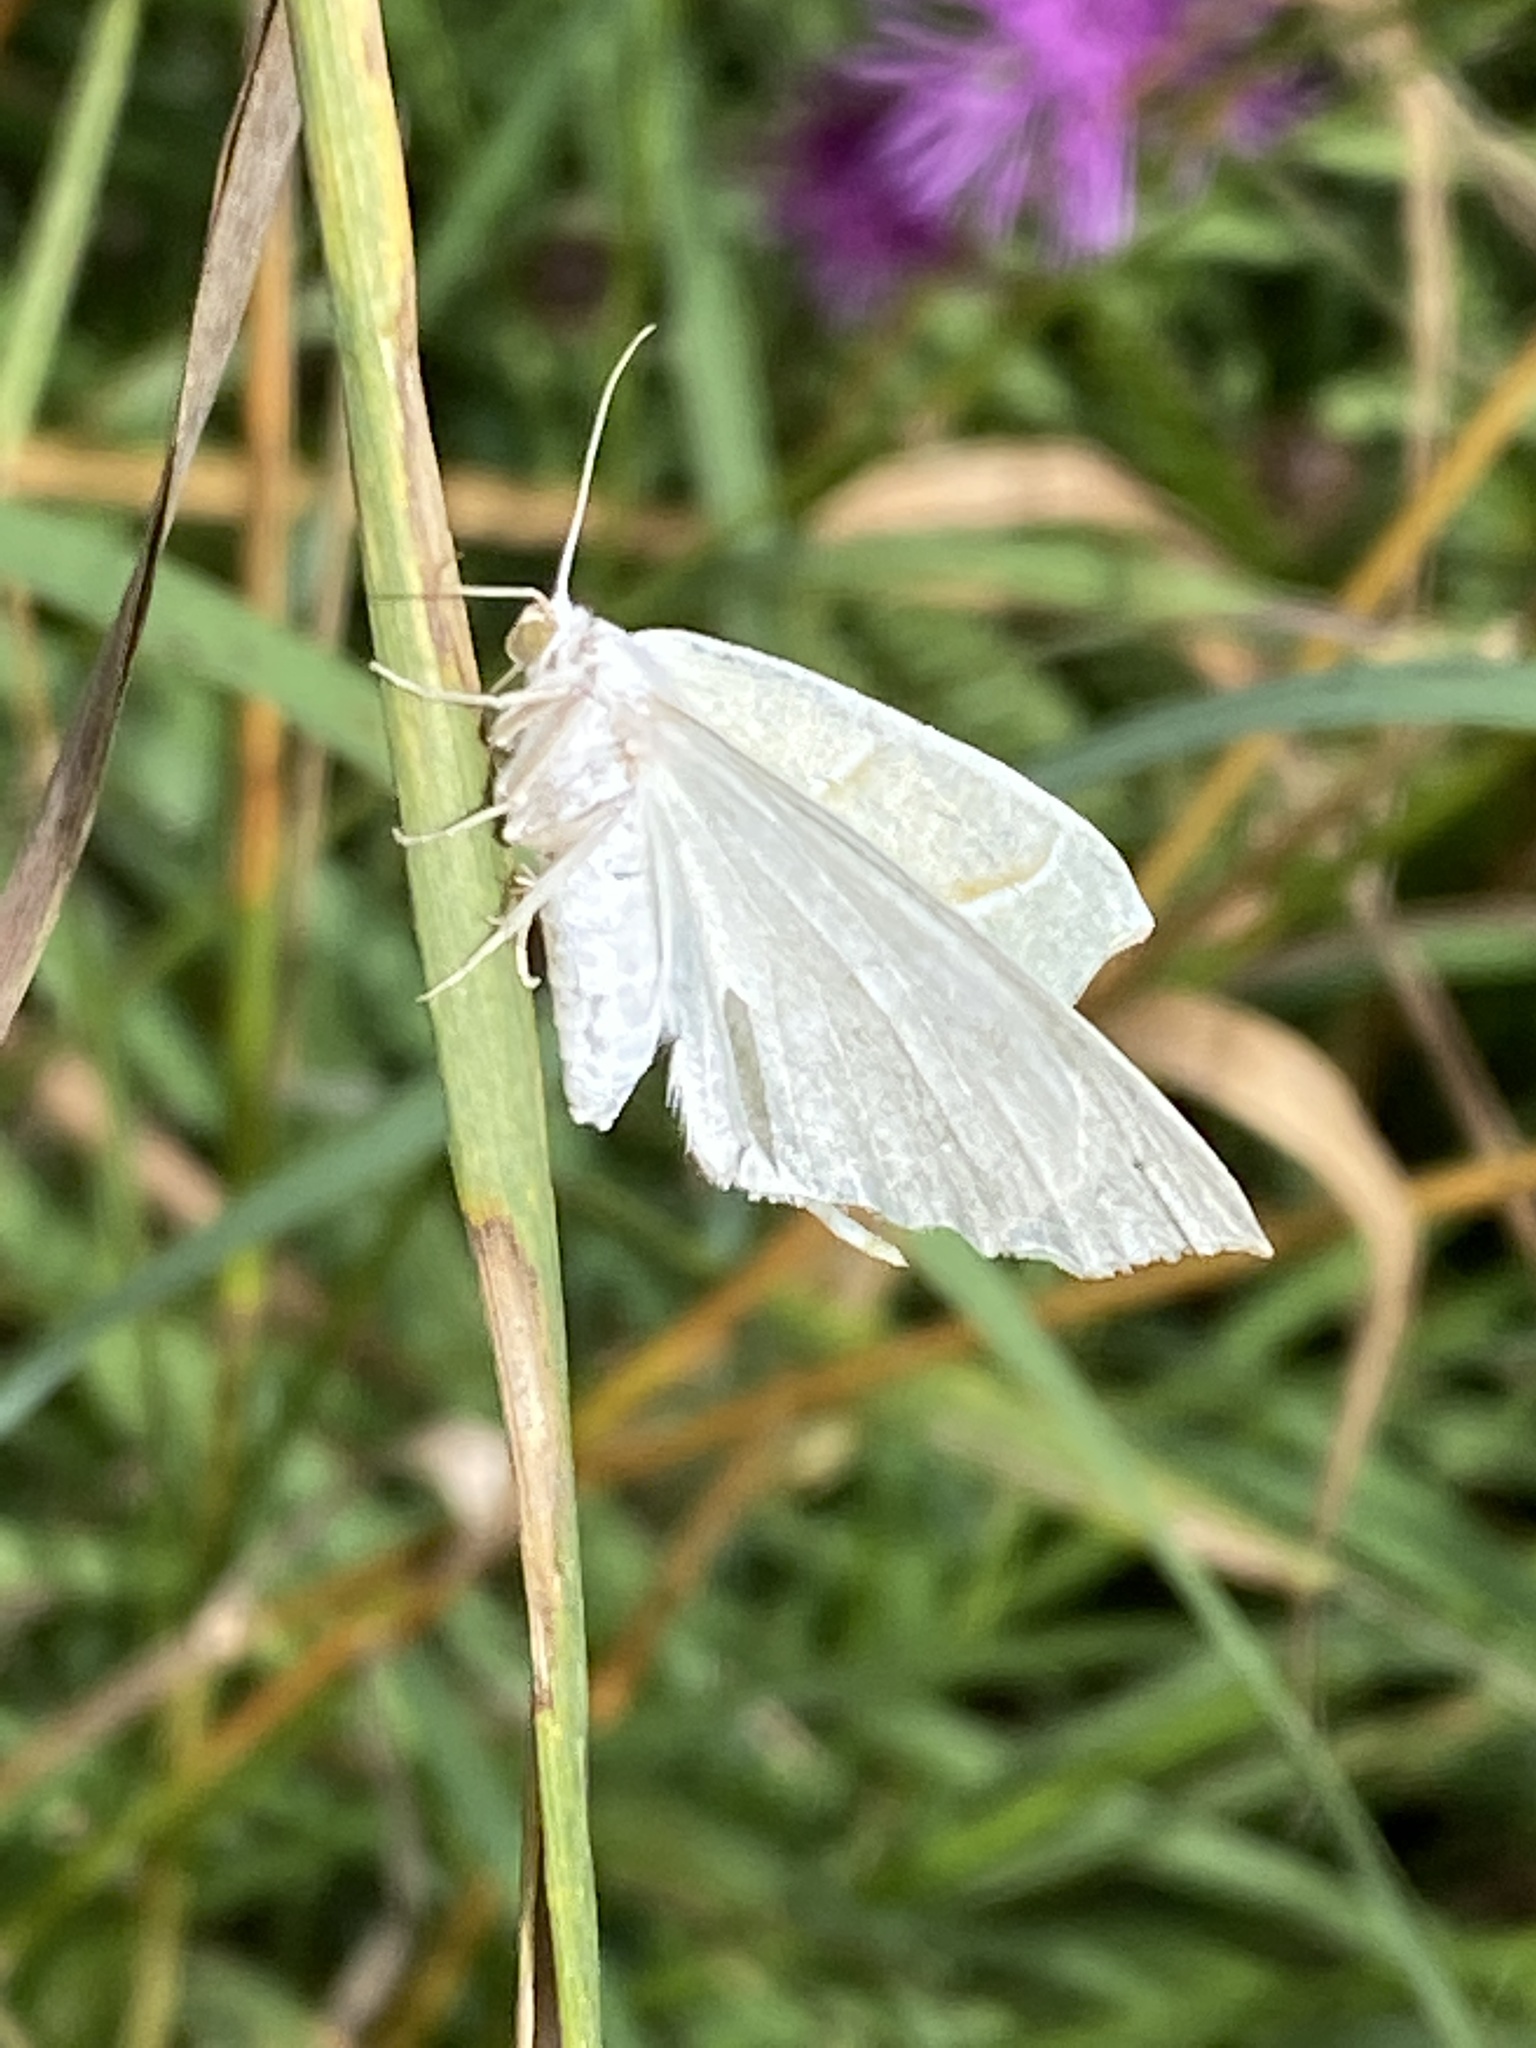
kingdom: Animalia
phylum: Arthropoda
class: Insecta
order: Lepidoptera
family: Geometridae
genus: Campaea
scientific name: Campaea margaritaria
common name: Light emerald
